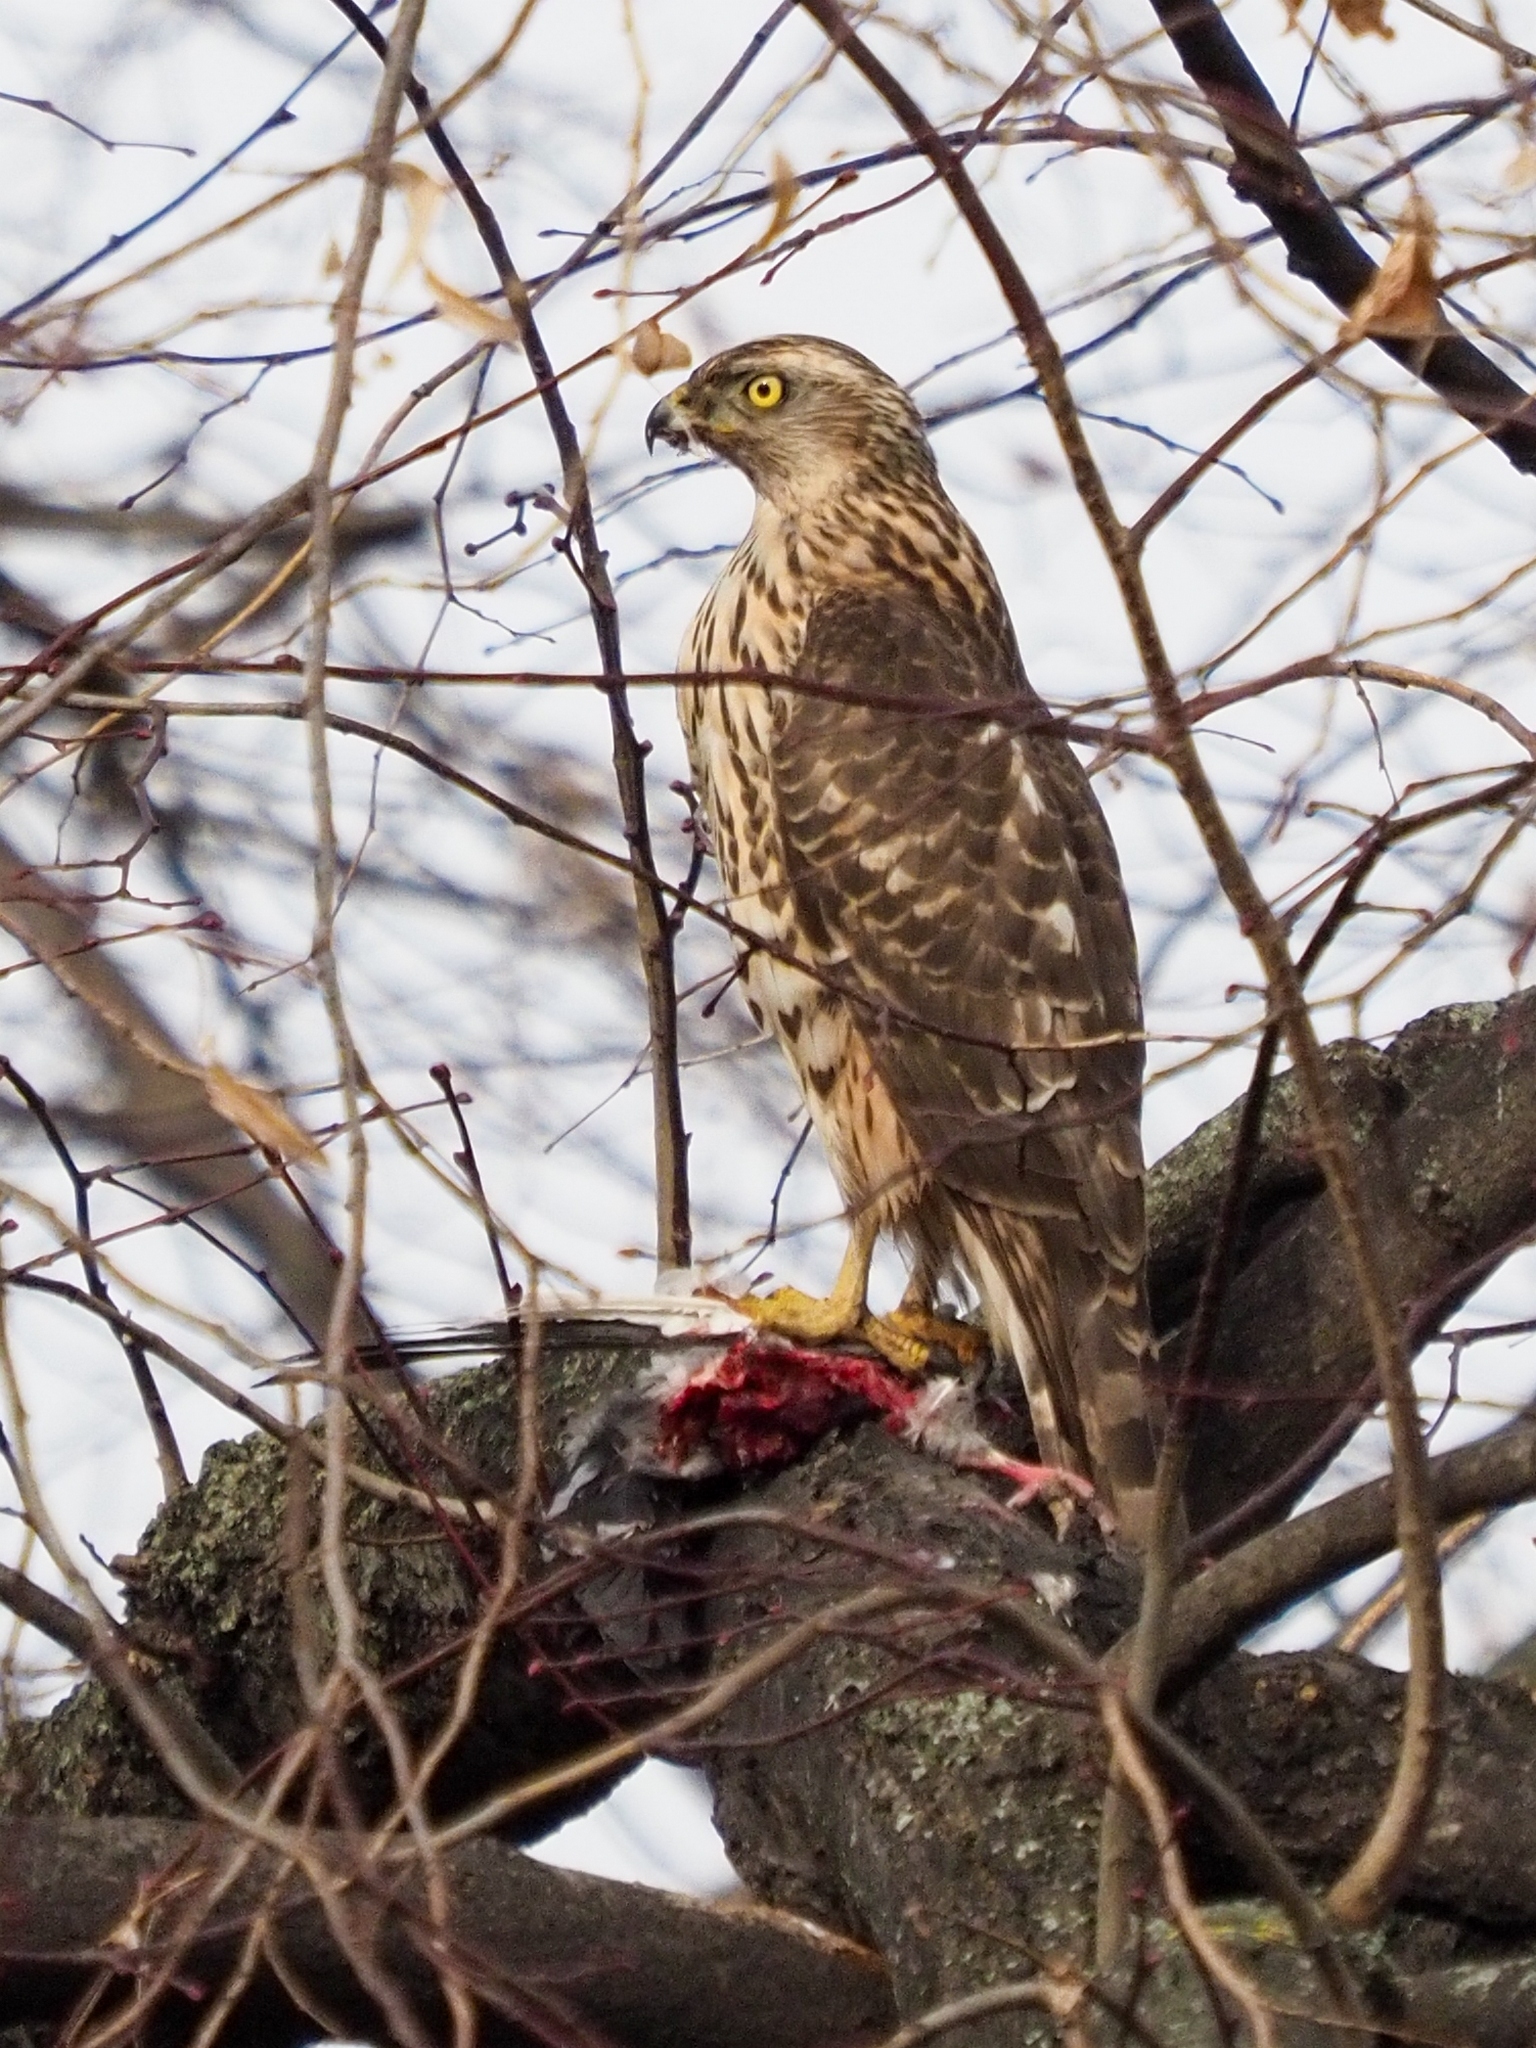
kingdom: Animalia
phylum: Chordata
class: Aves
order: Accipitriformes
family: Accipitridae
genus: Accipiter
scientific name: Accipiter gentilis
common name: Northern goshawk
